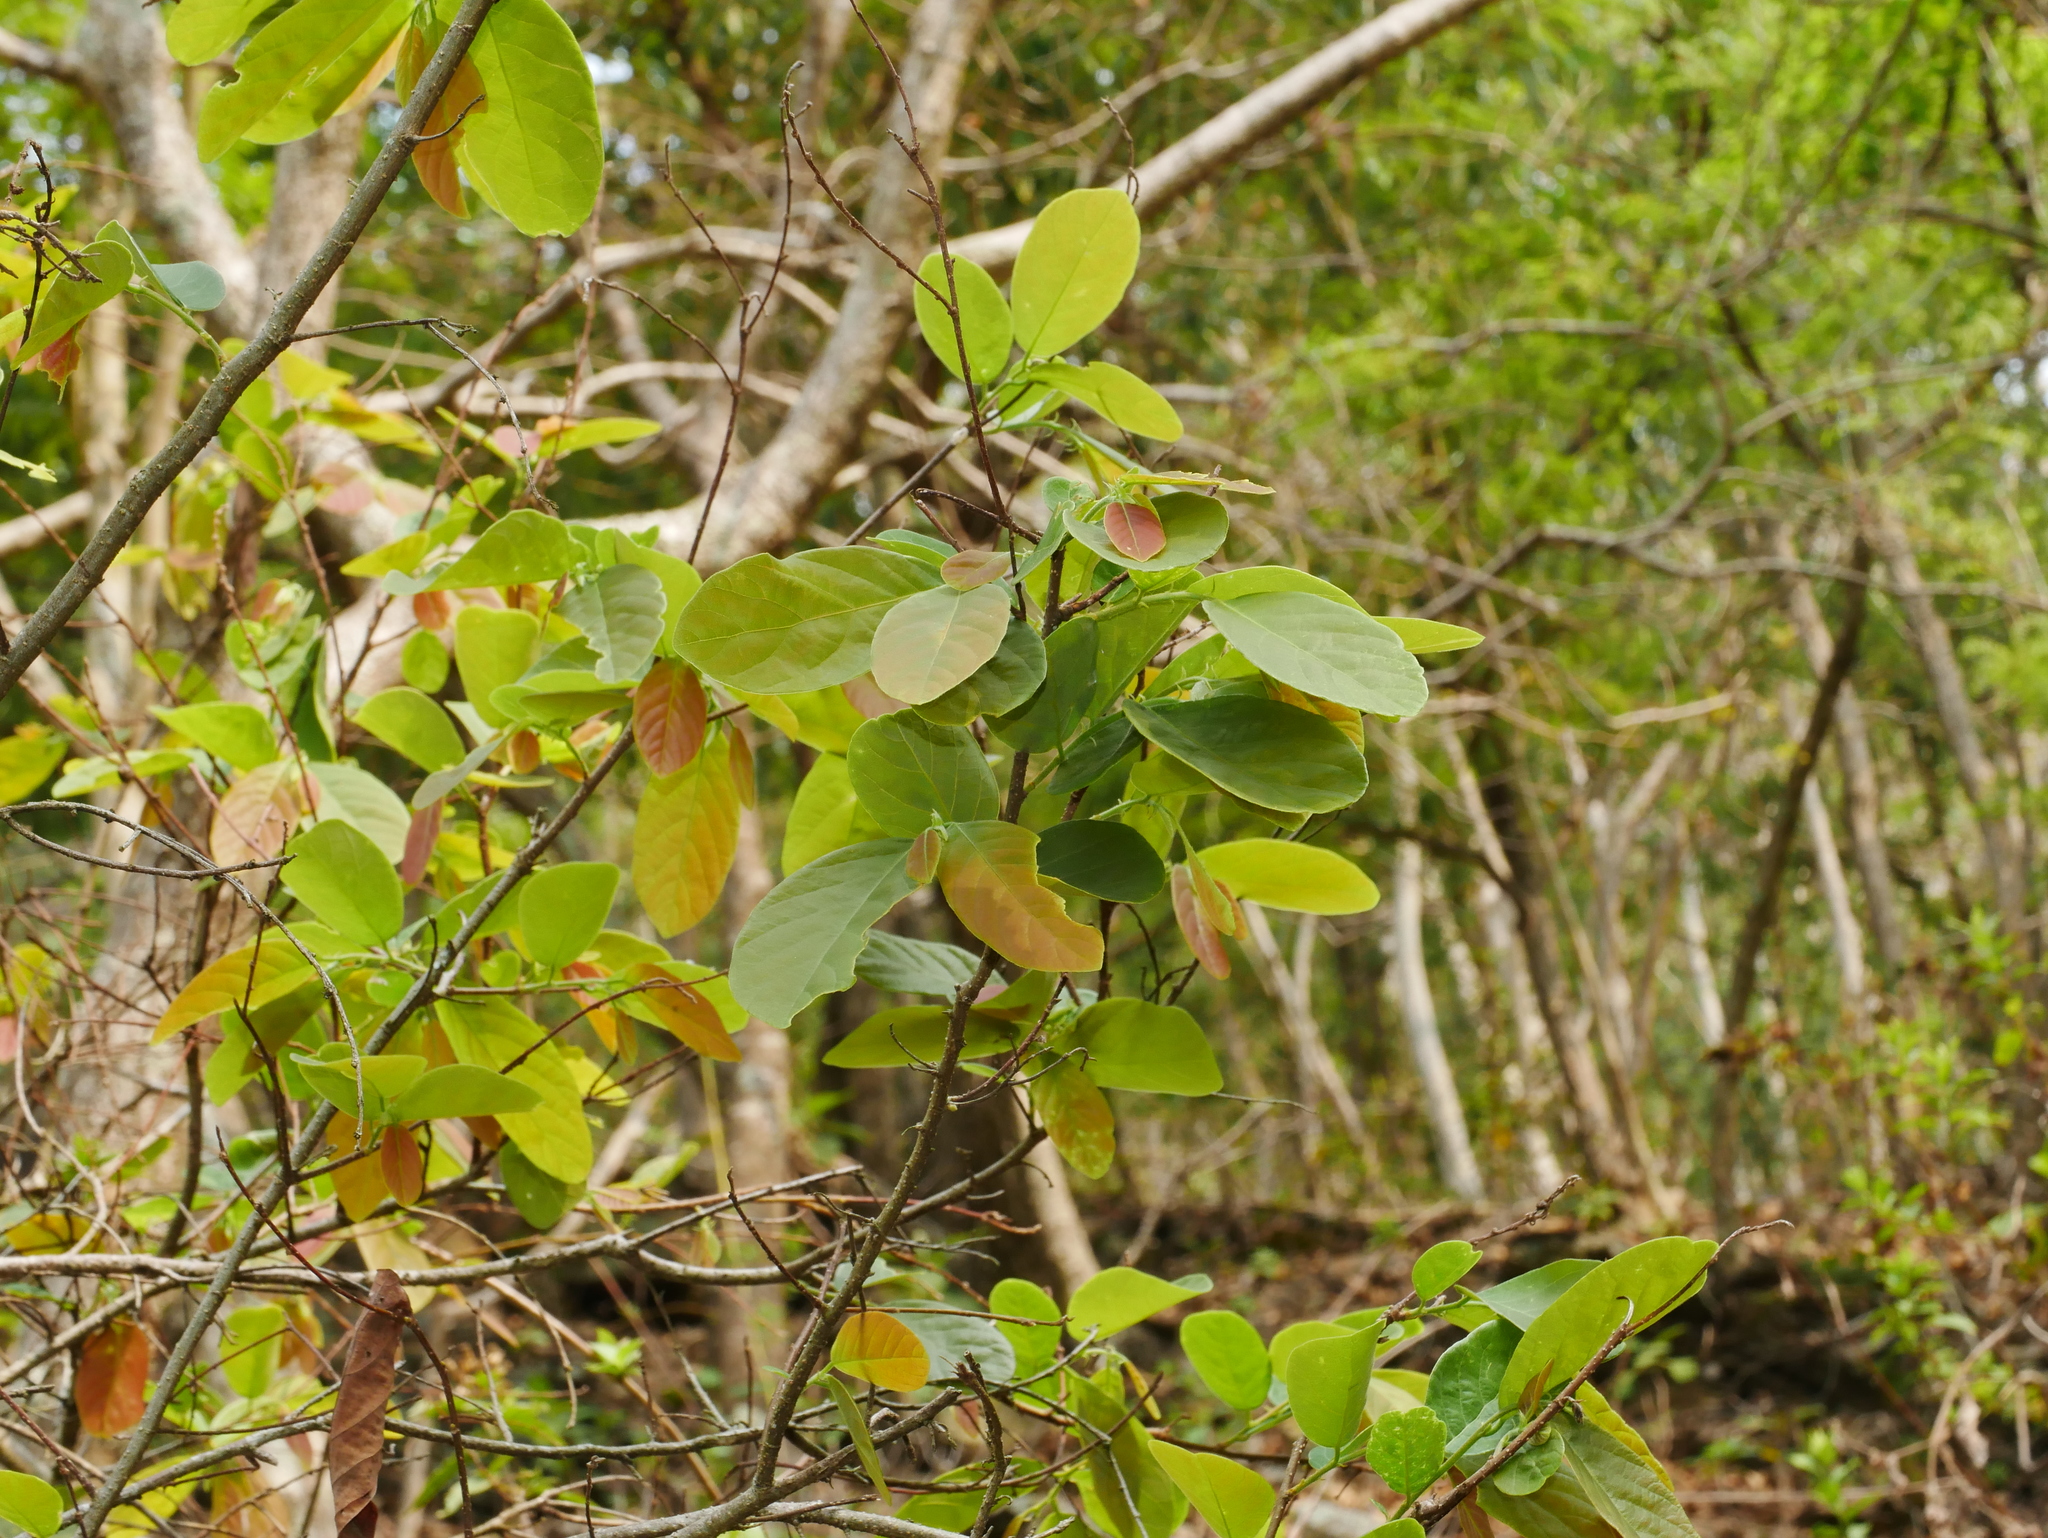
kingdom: Plantae
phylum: Tracheophyta
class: Magnoliopsida
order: Malpighiales
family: Phyllanthaceae
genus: Bridelia
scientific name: Bridelia tomentosa
